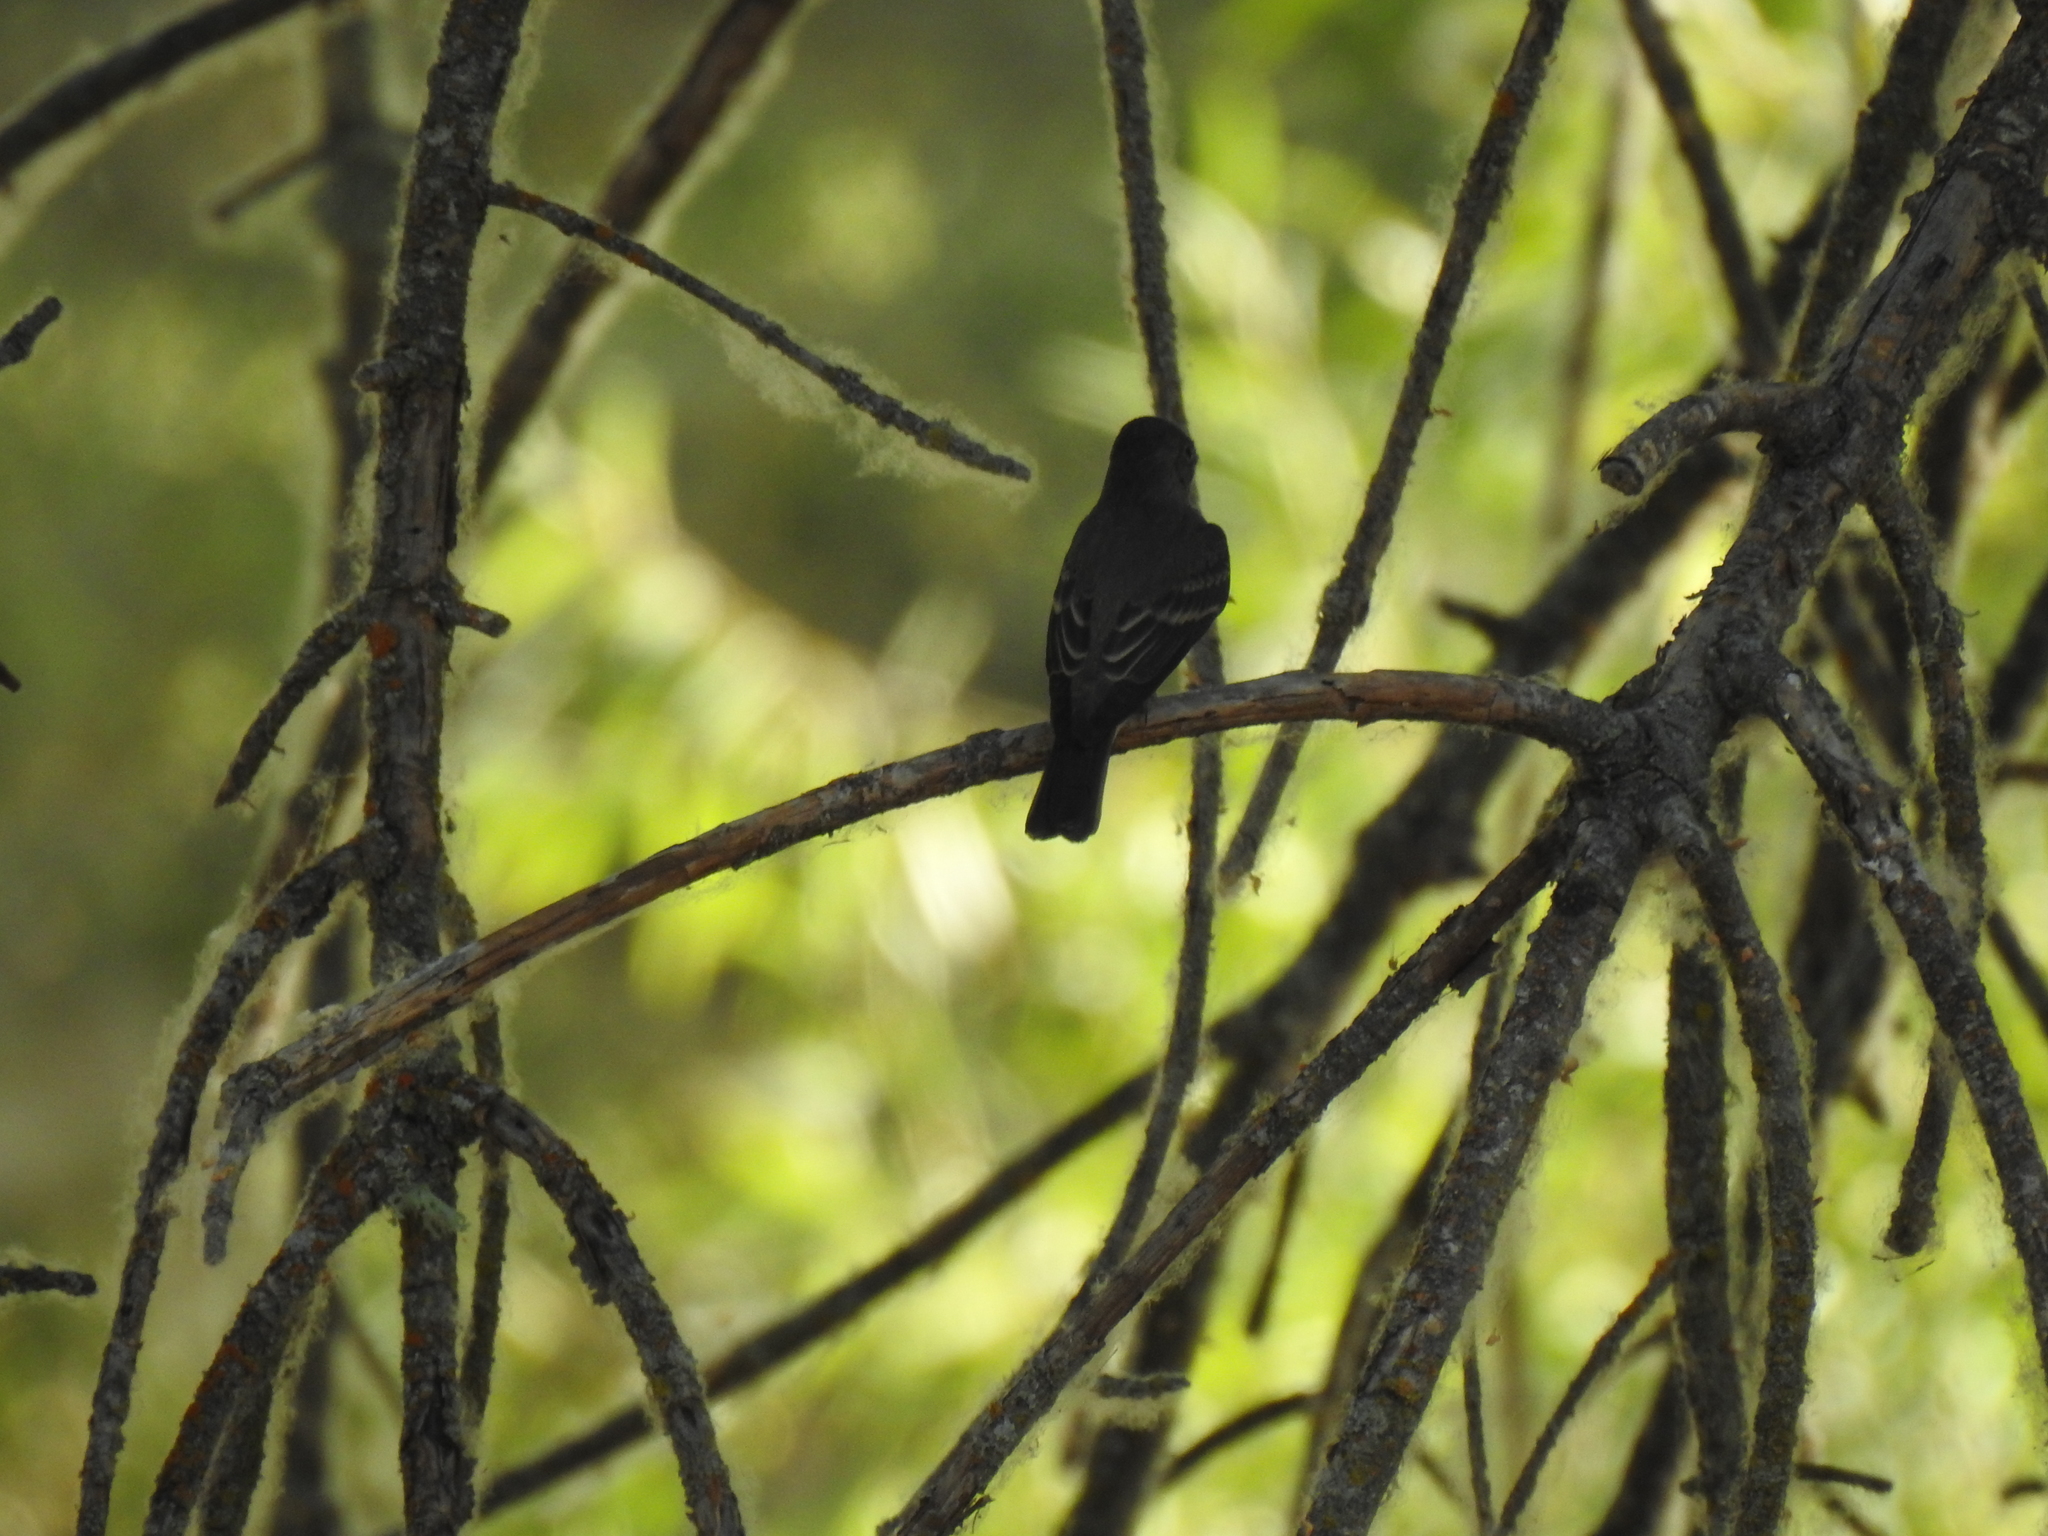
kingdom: Animalia
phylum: Chordata
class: Aves
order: Passeriformes
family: Tyrannidae
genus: Contopus
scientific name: Contopus sordidulus
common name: Western wood-pewee
